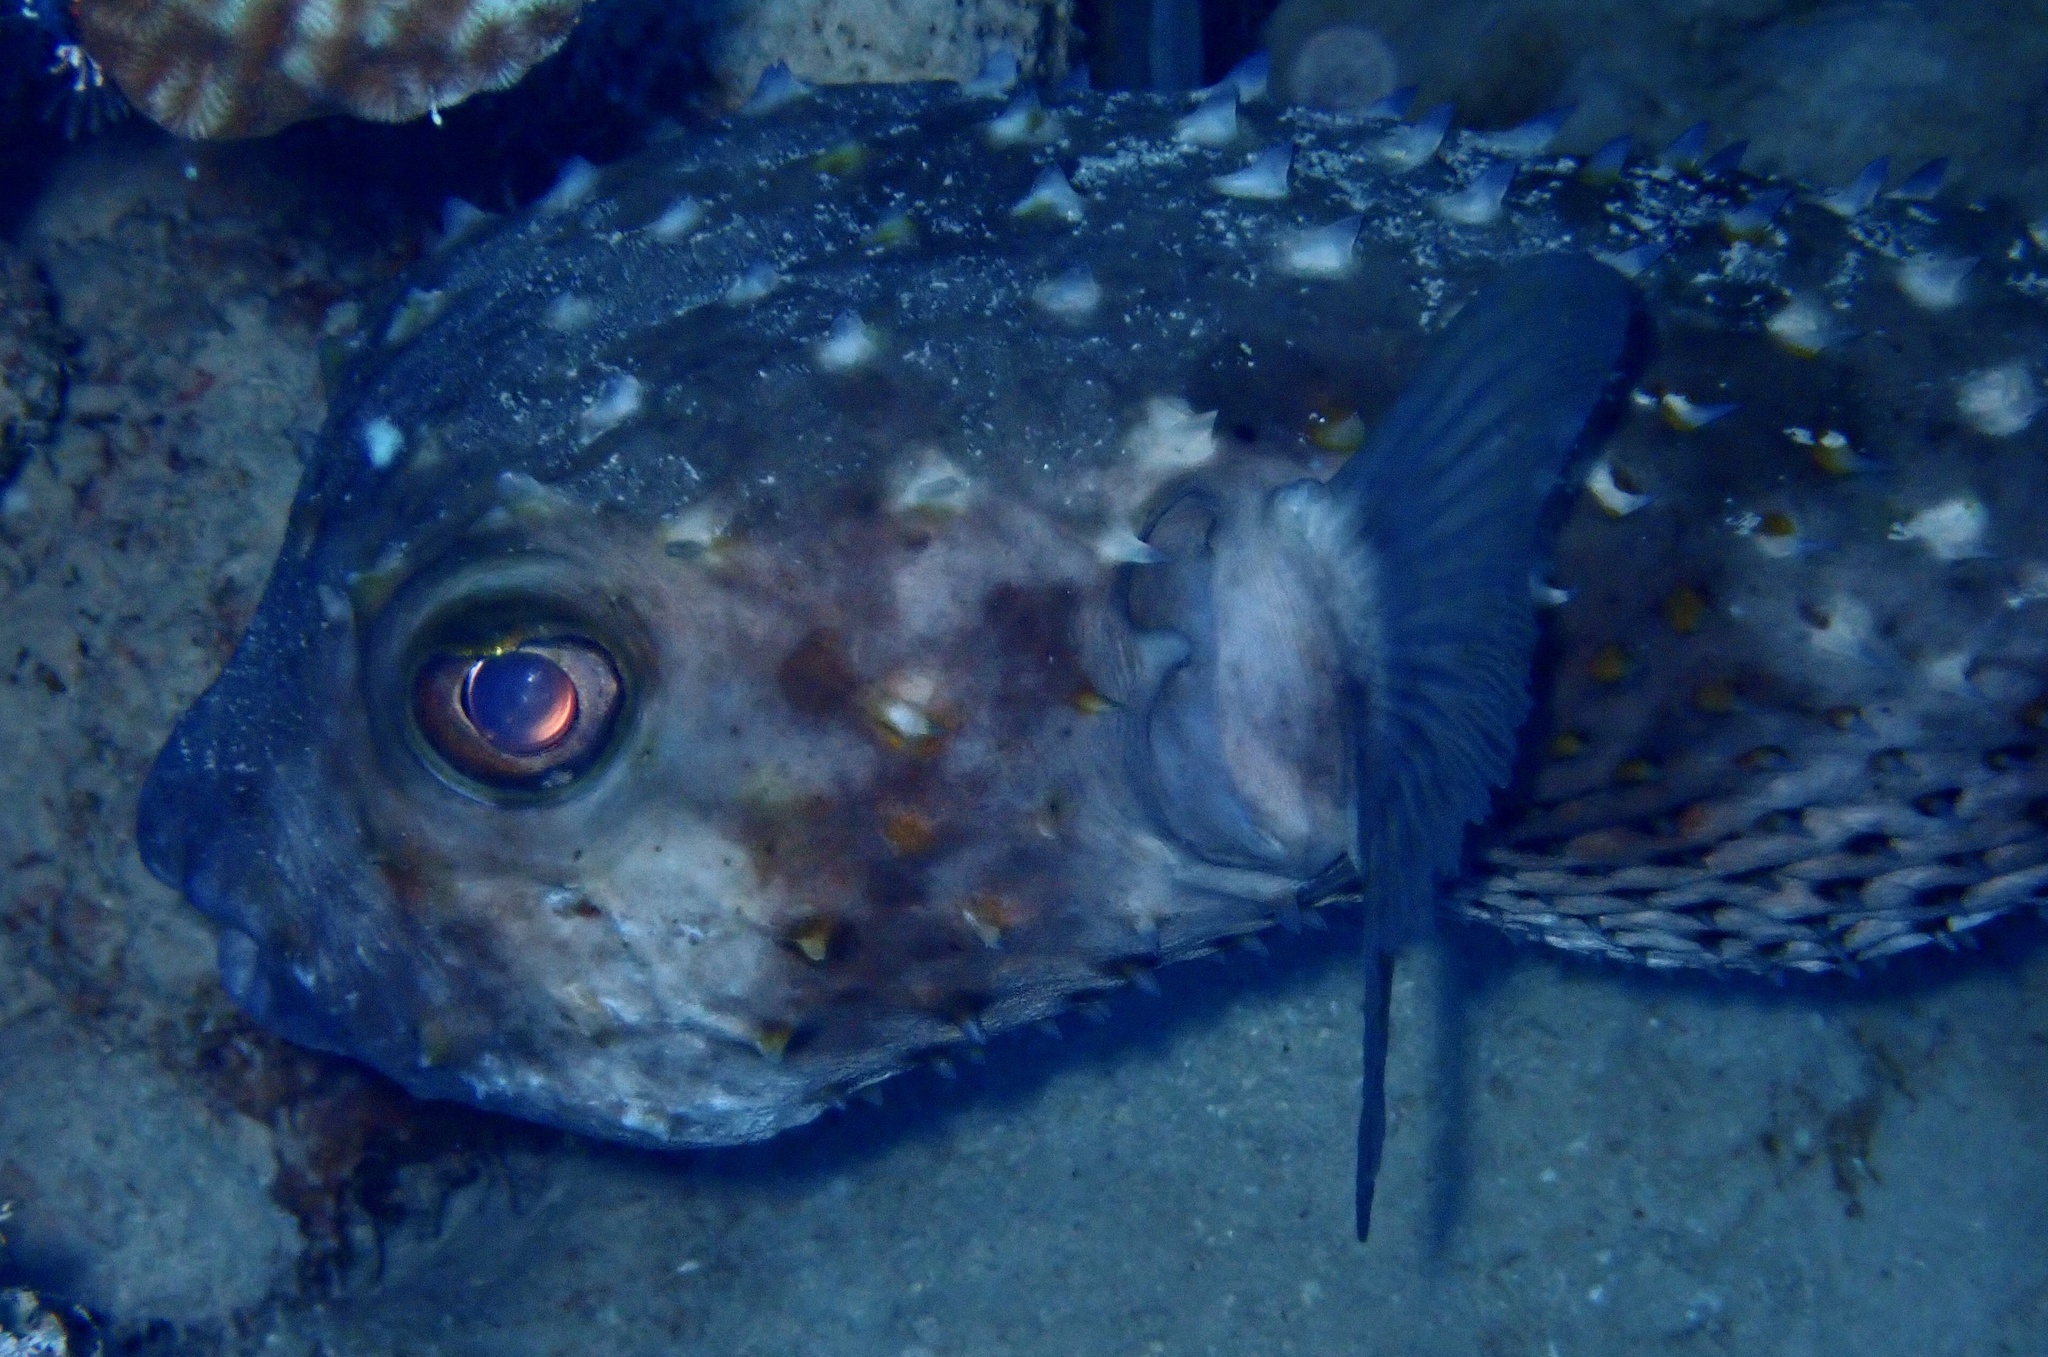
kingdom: Animalia
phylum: Chordata
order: Tetraodontiformes
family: Diodontidae
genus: Cyclichthys
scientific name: Cyclichthys spilostylus
